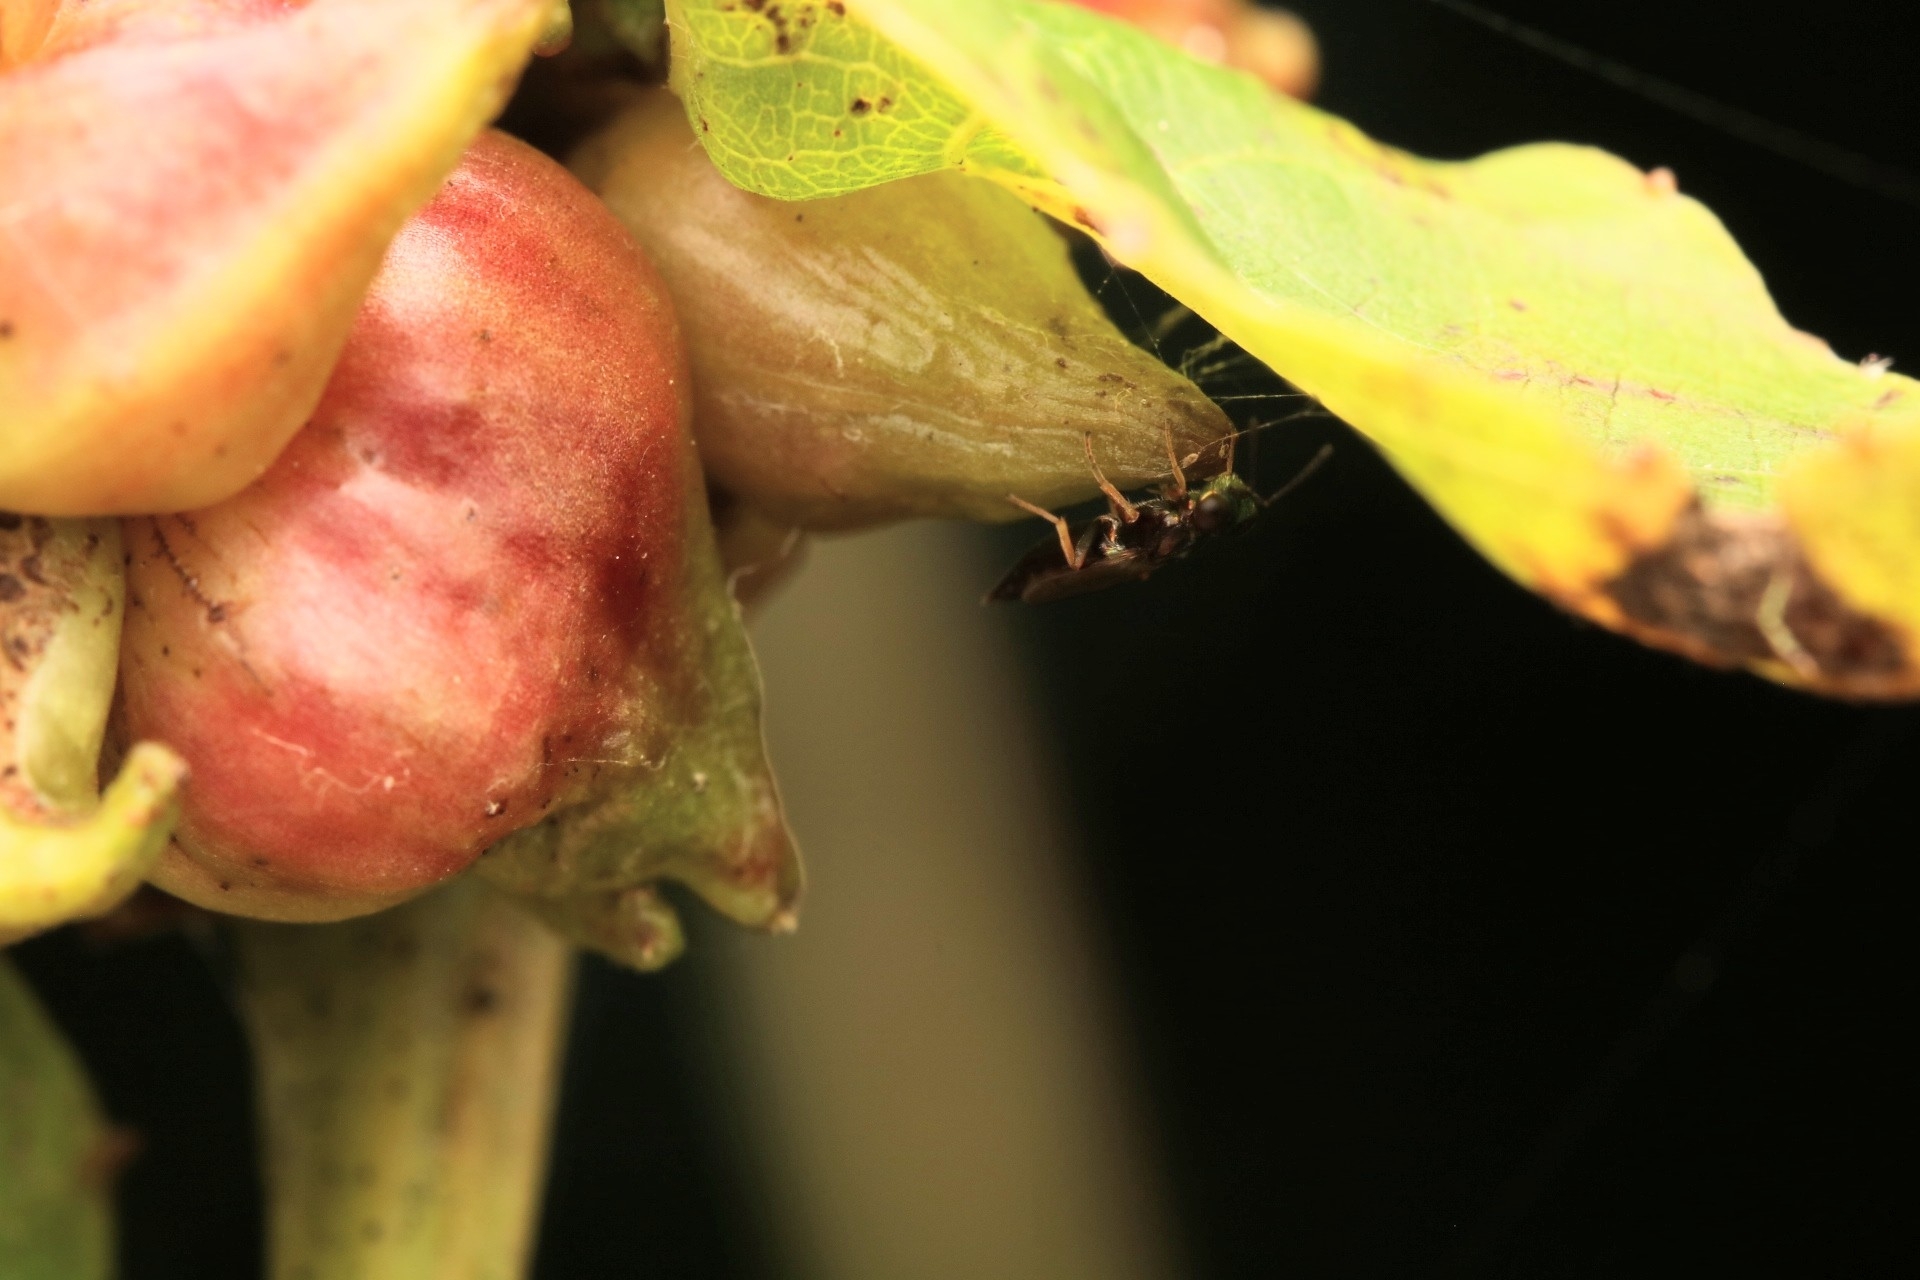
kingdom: Animalia
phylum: Arthropoda
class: Insecta
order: Diptera
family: Cecidomyiidae
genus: Ampelomyia
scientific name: Ampelomyia vitiscoryloides
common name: Grape filbert gall
